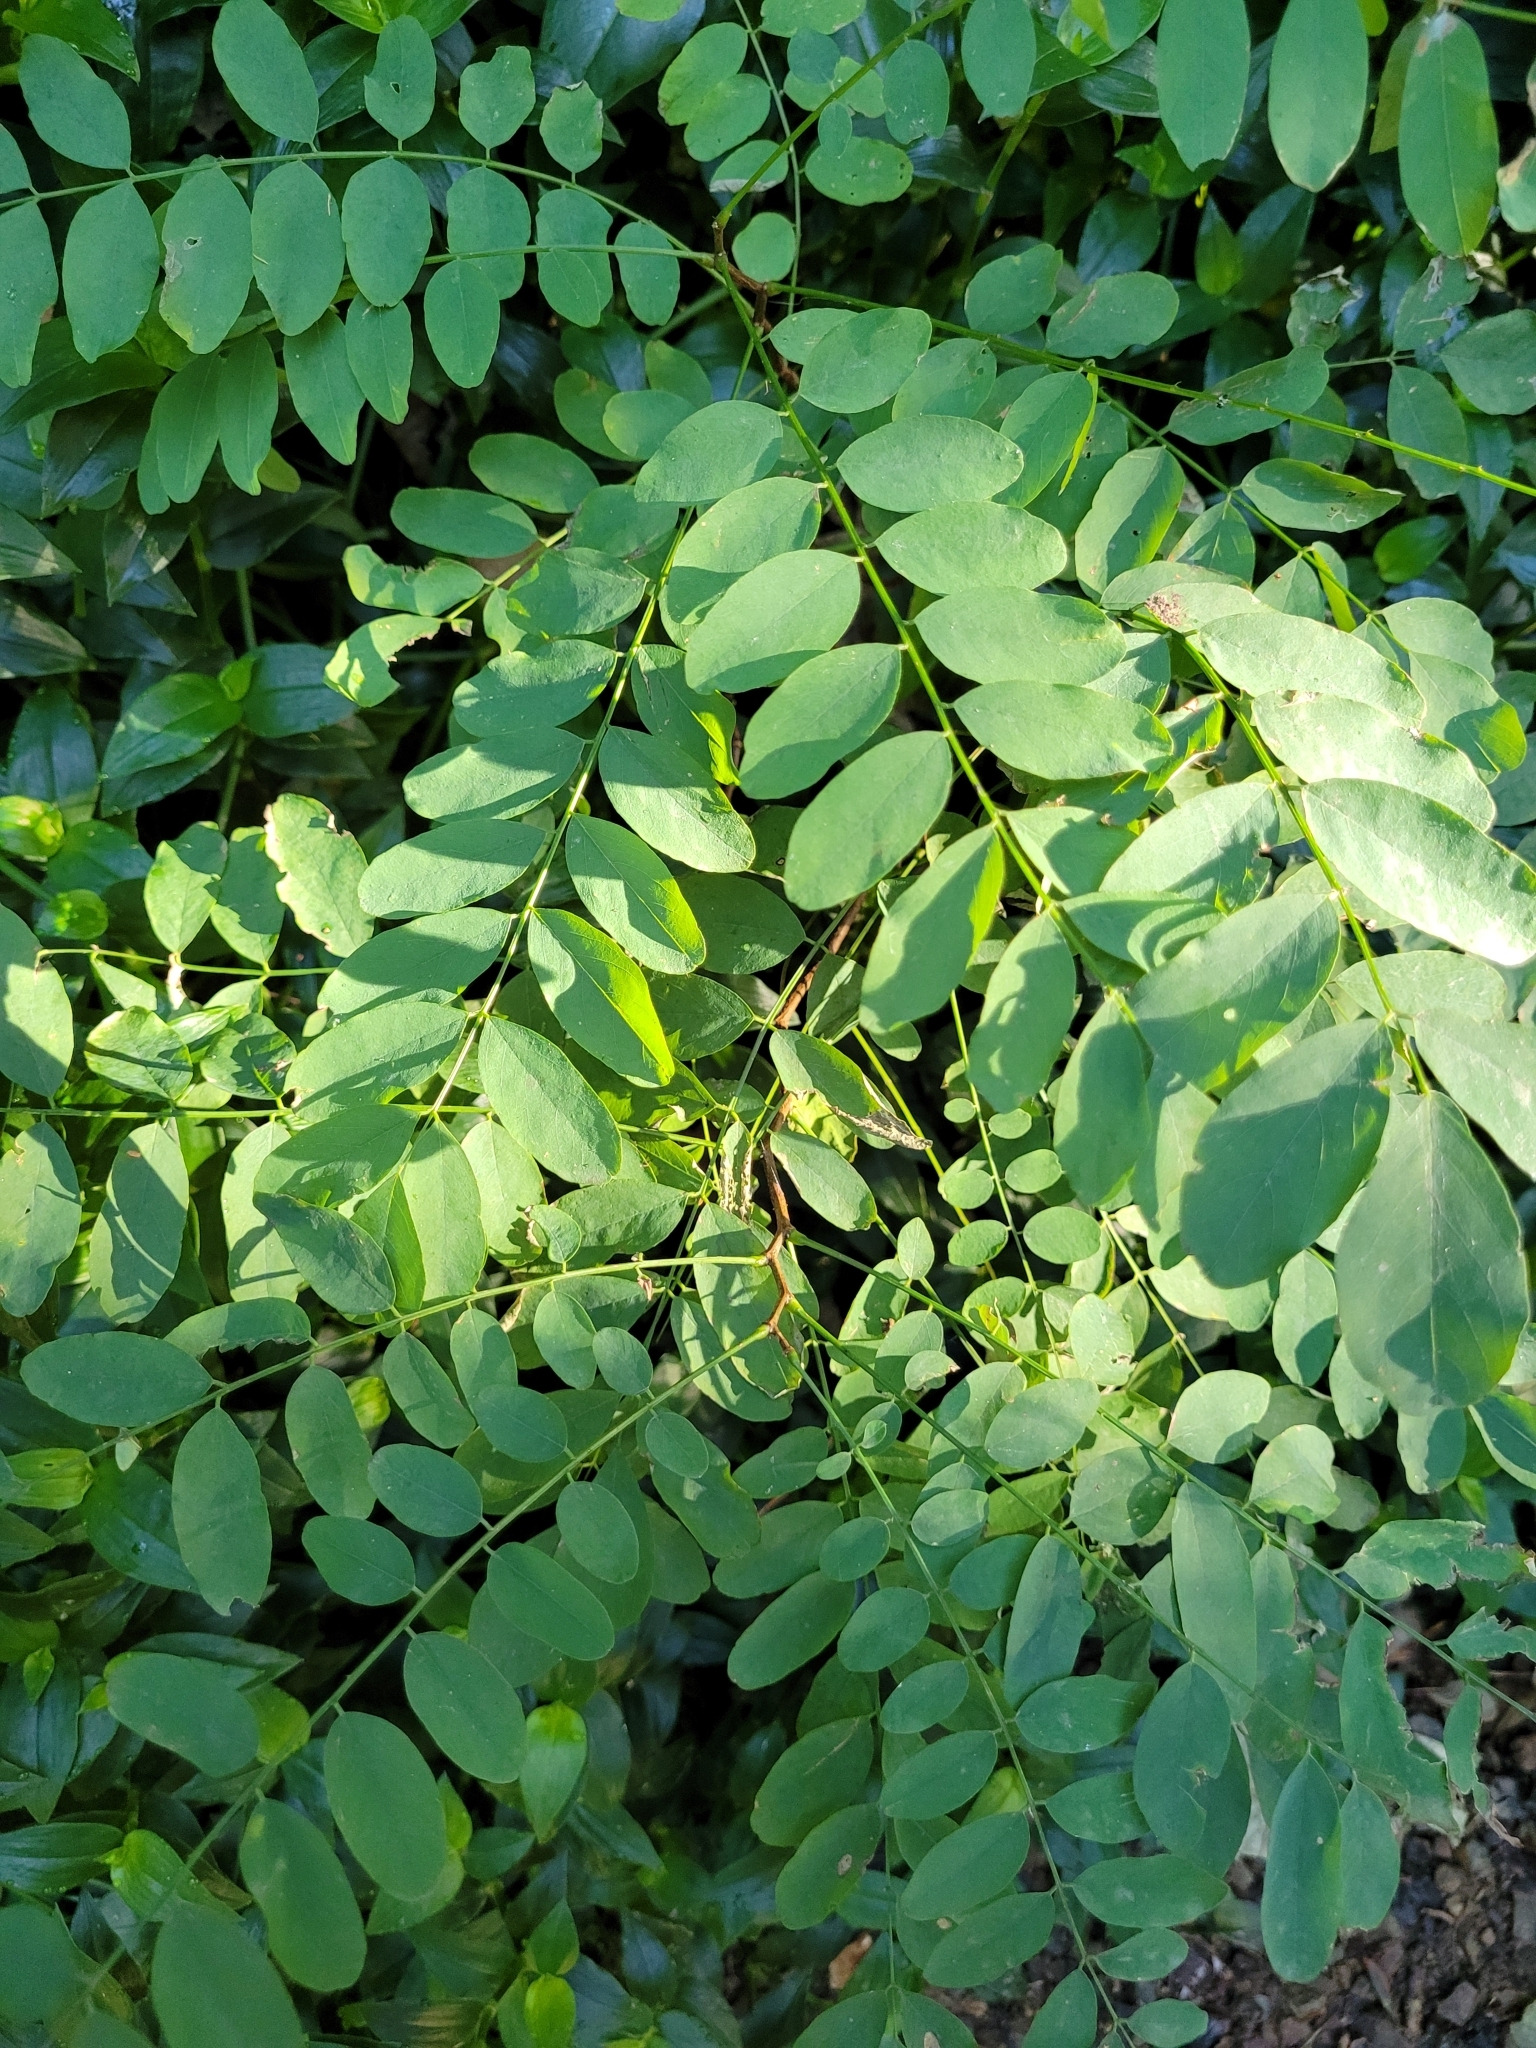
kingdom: Plantae
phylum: Tracheophyta
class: Magnoliopsida
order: Fabales
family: Fabaceae
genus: Robinia
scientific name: Robinia pseudoacacia
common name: Black locust
